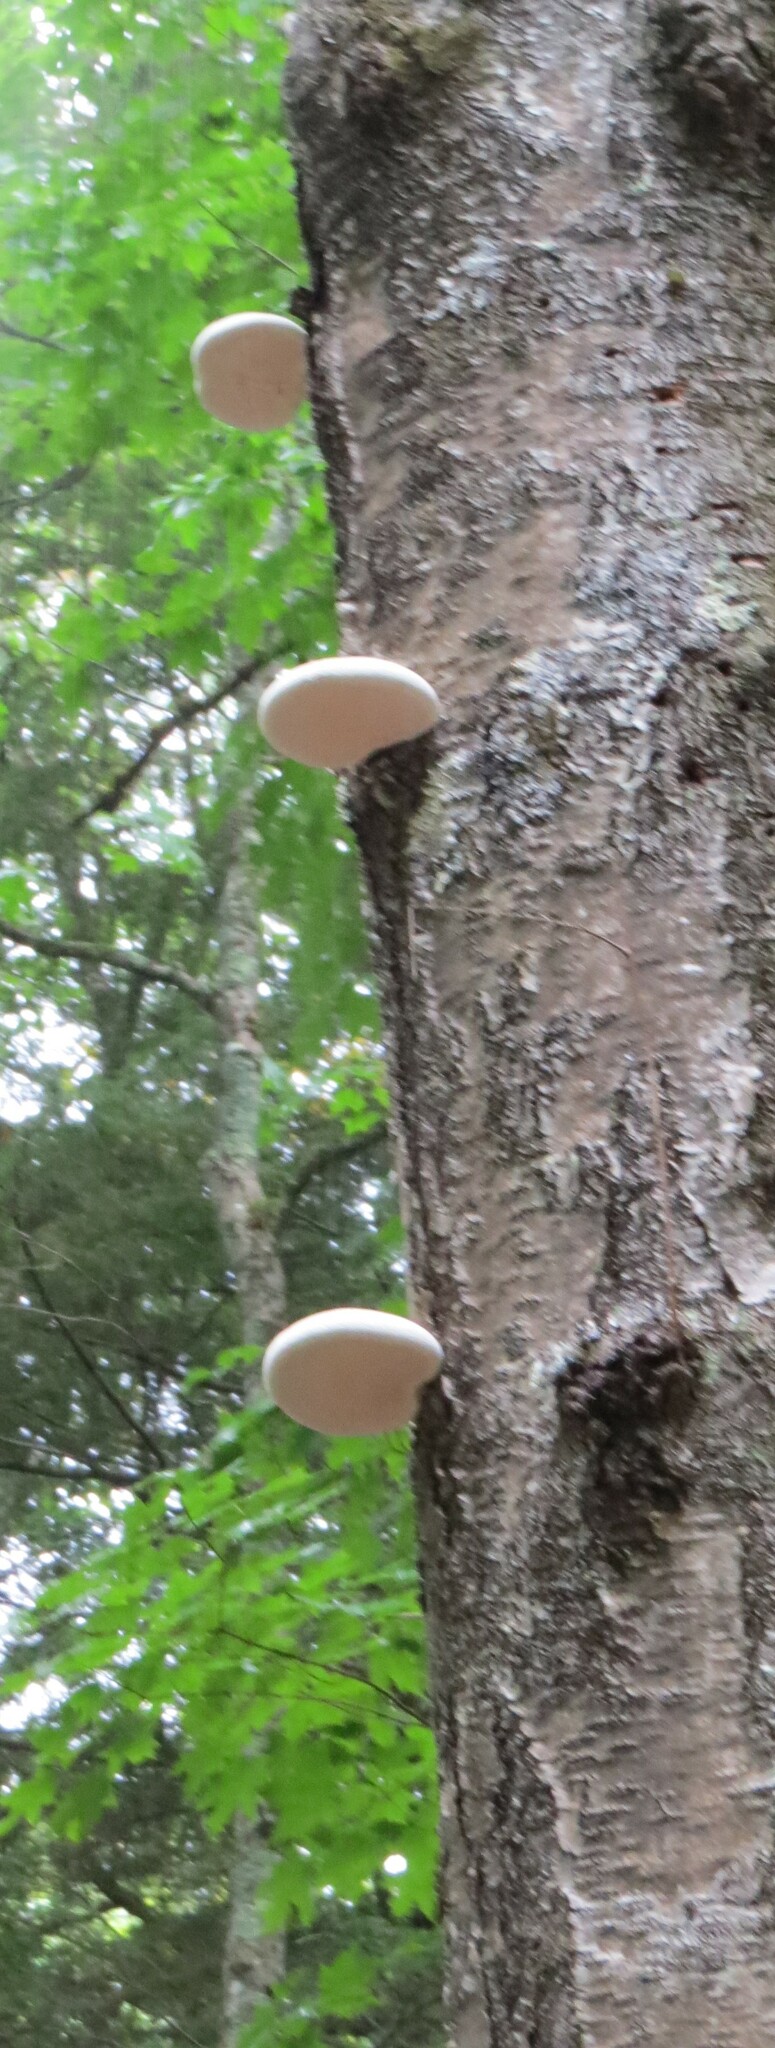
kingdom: Fungi
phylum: Basidiomycota
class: Agaricomycetes
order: Polyporales
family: Fomitopsidaceae
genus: Fomitopsis
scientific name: Fomitopsis betulina
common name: Birch polypore
